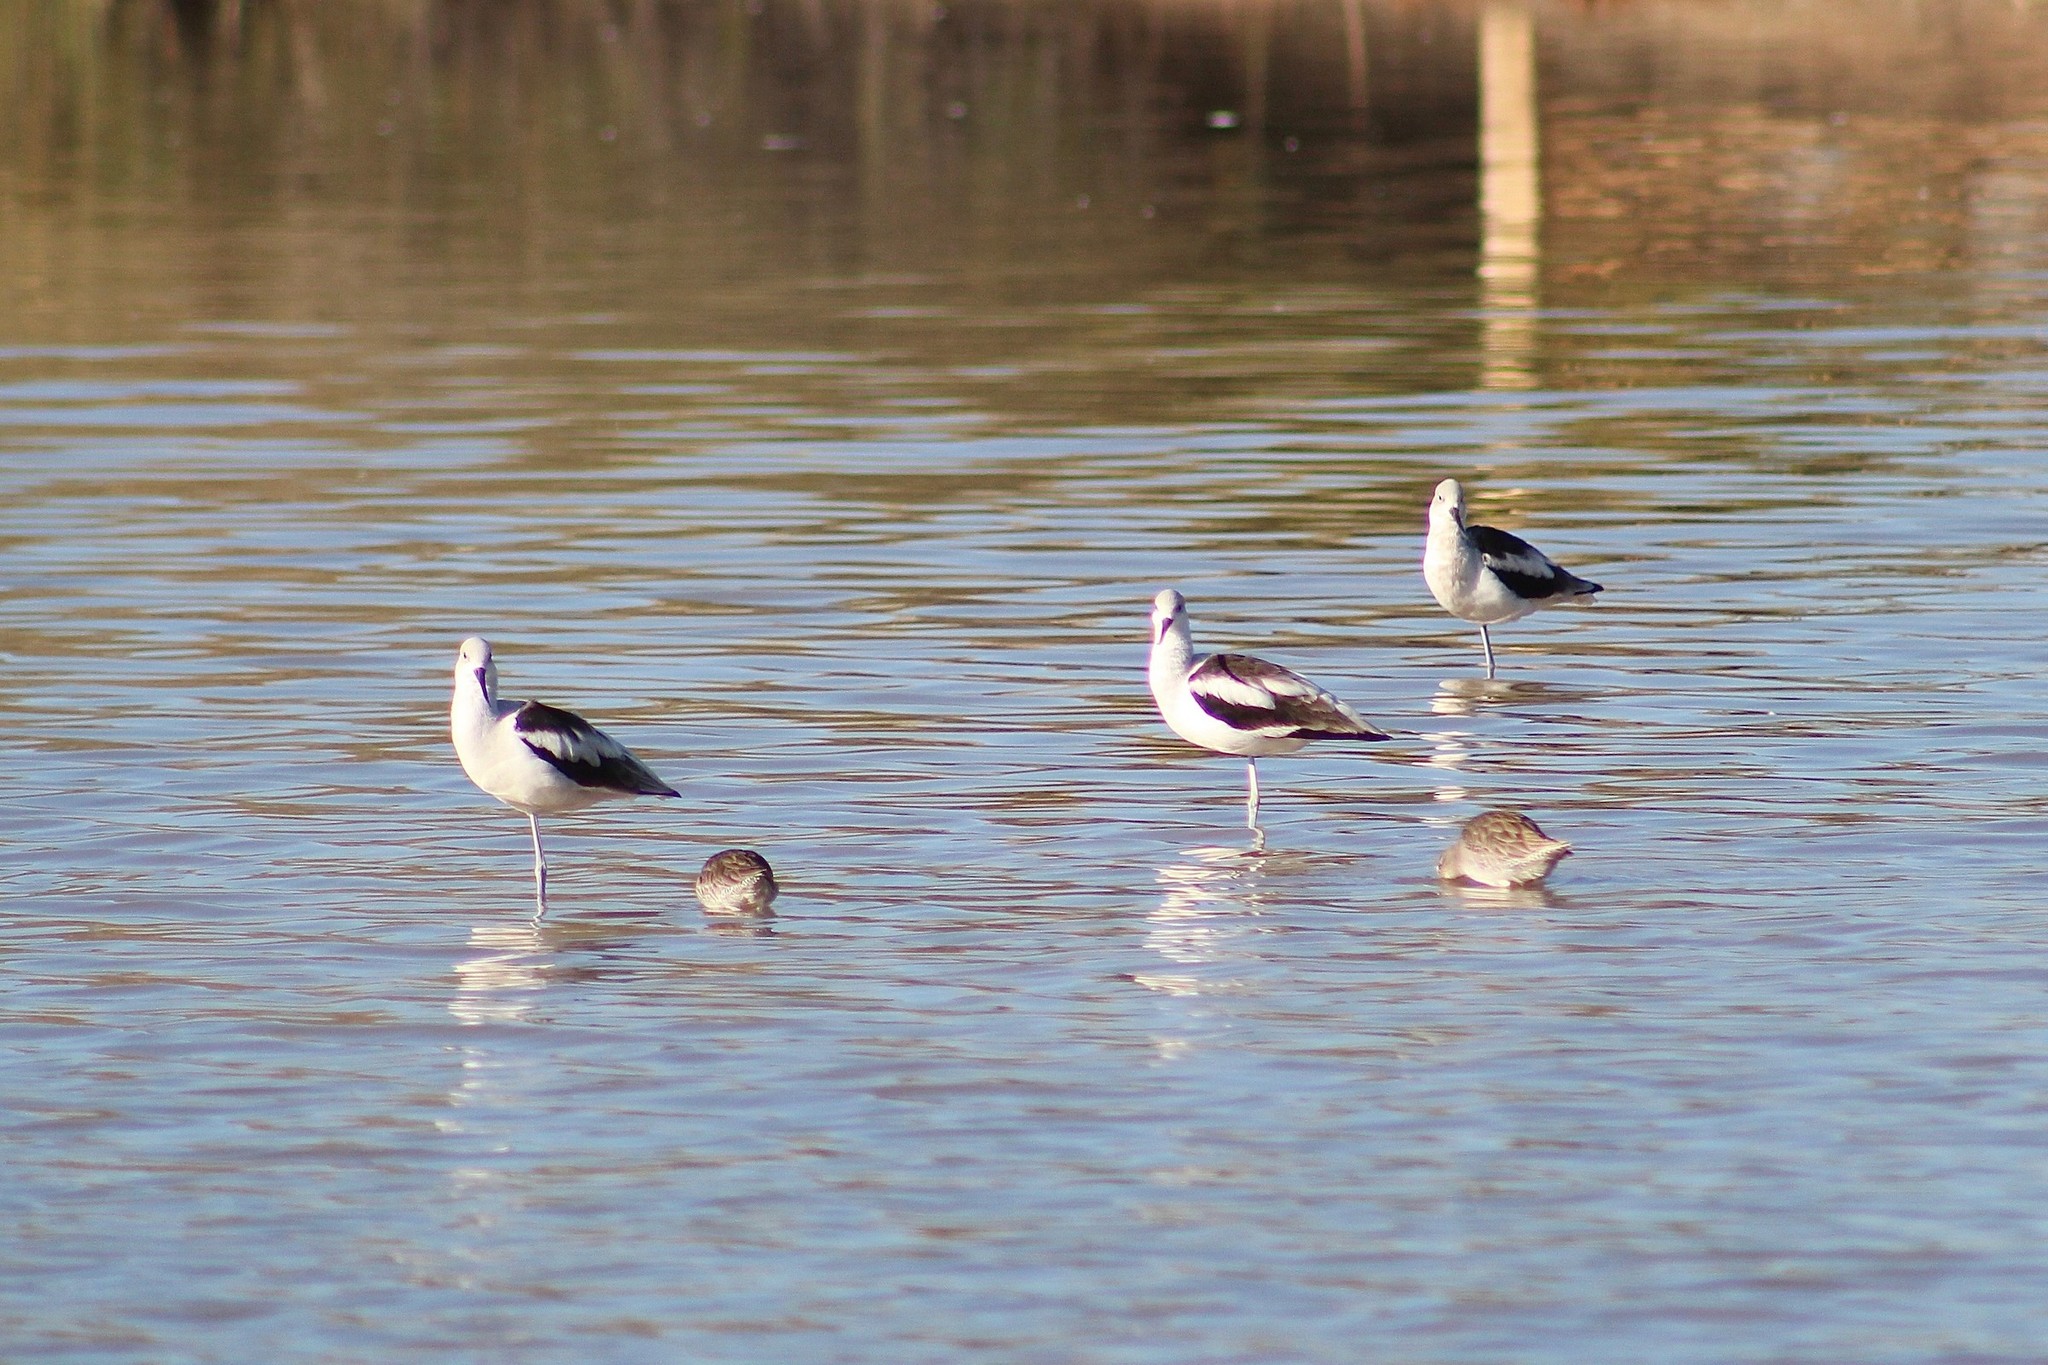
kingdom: Animalia
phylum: Chordata
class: Aves
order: Charadriiformes
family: Recurvirostridae
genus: Recurvirostra
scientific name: Recurvirostra americana
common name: American avocet
